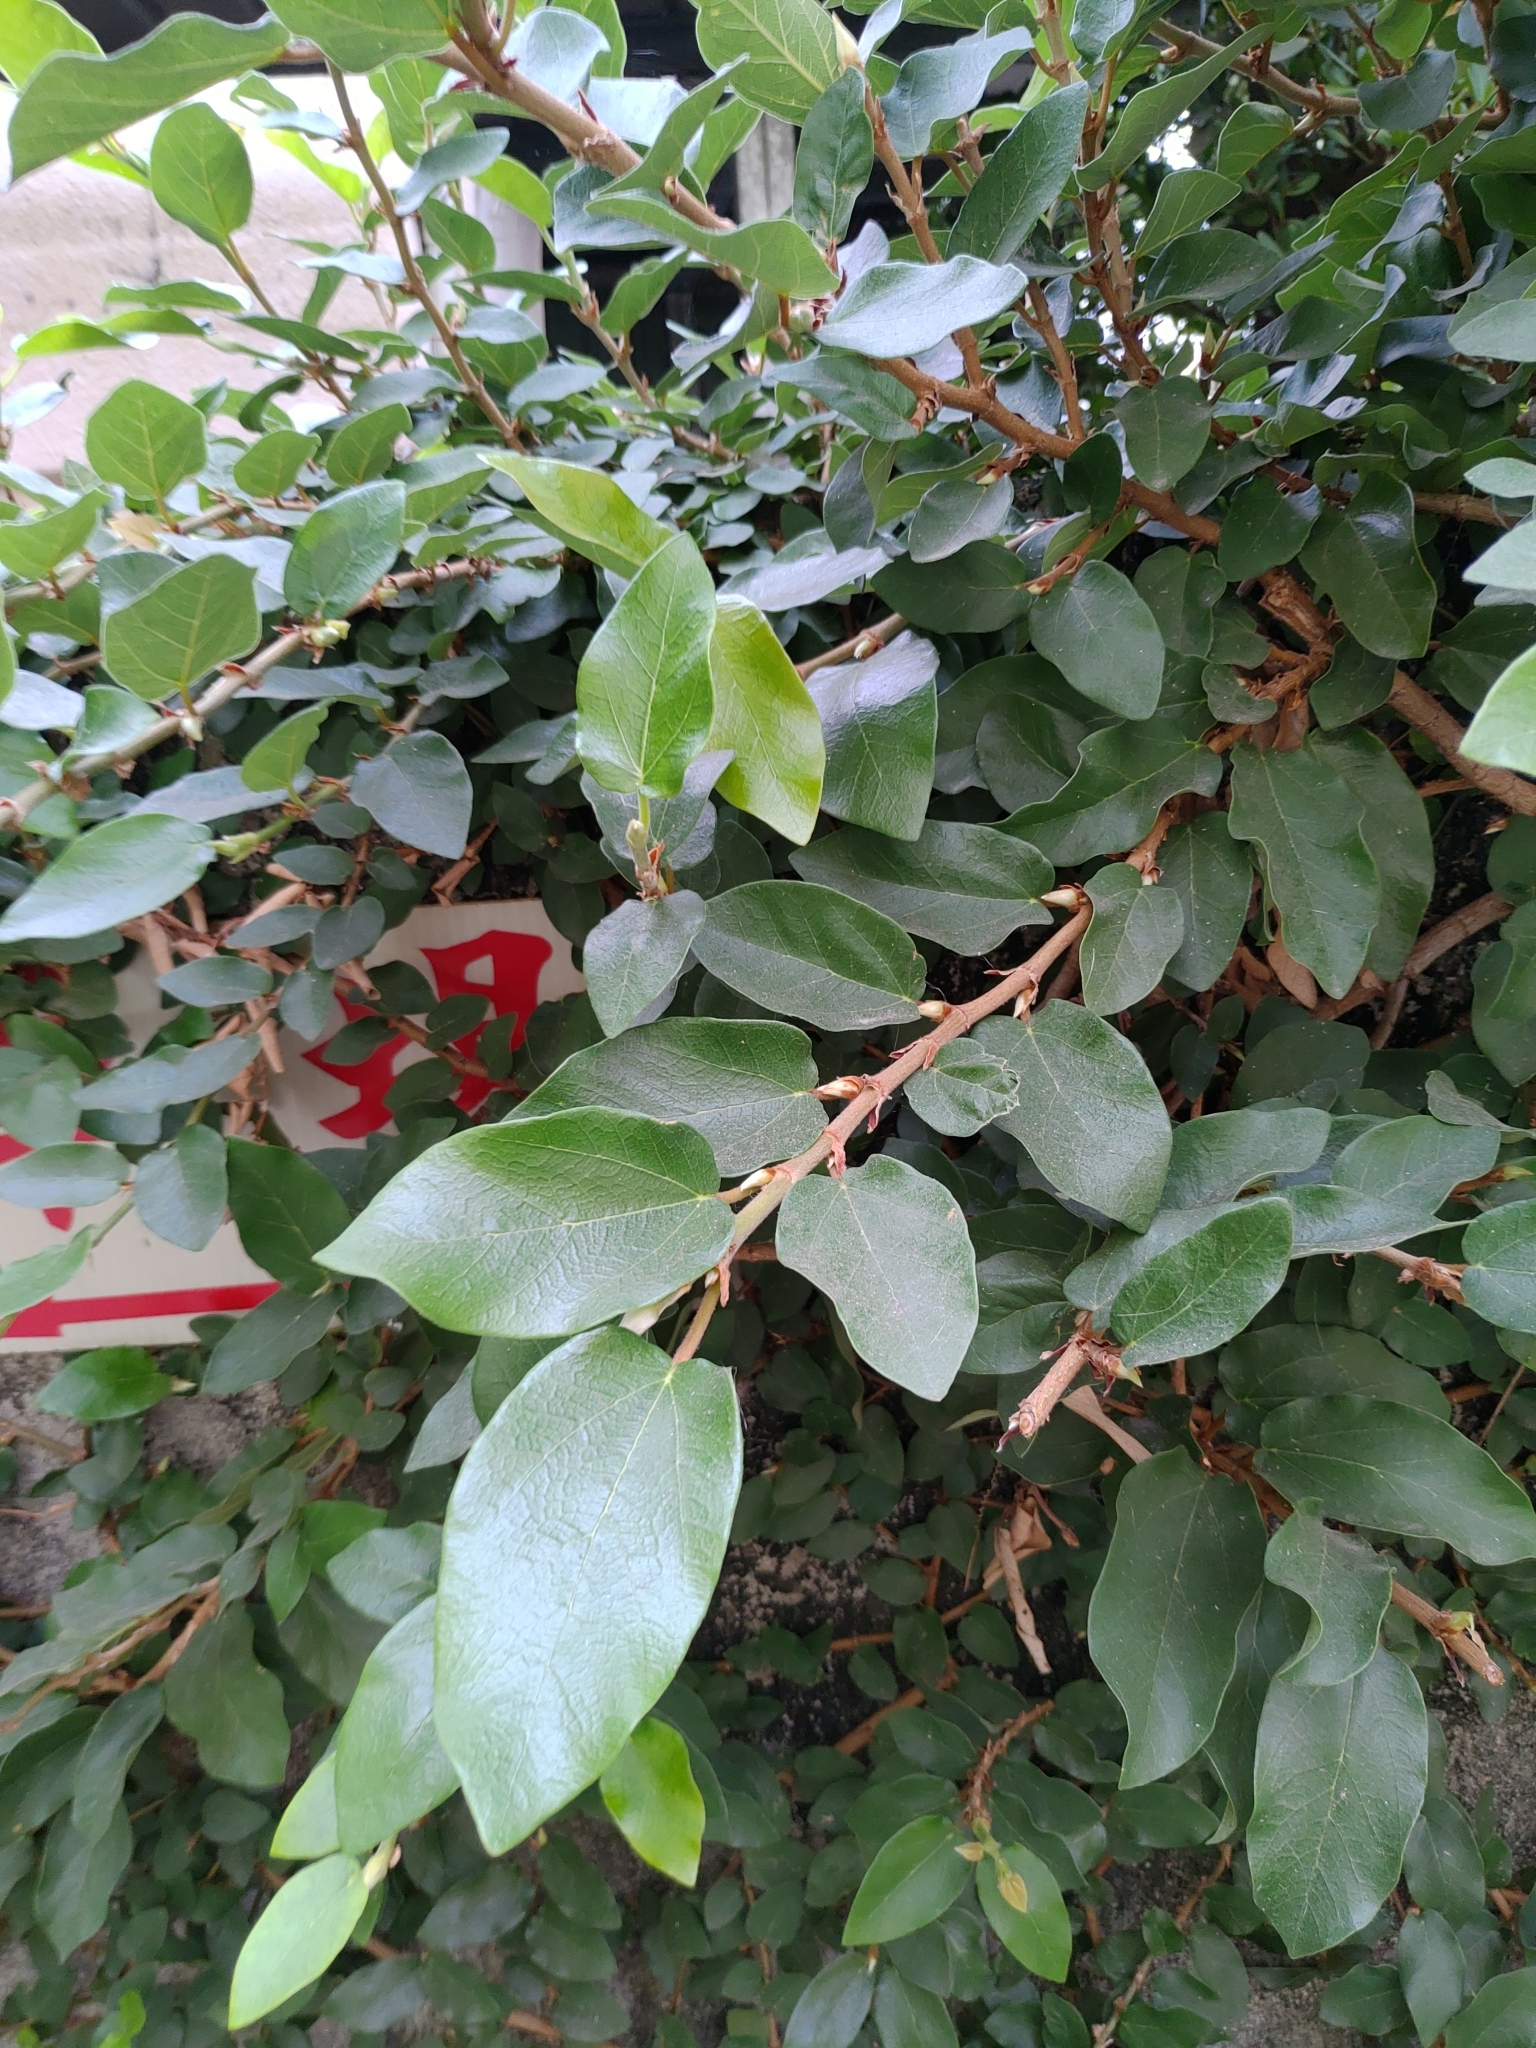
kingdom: Plantae
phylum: Tracheophyta
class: Magnoliopsida
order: Rosales
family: Moraceae
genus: Ficus
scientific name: Ficus pumila
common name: Climbingfig
